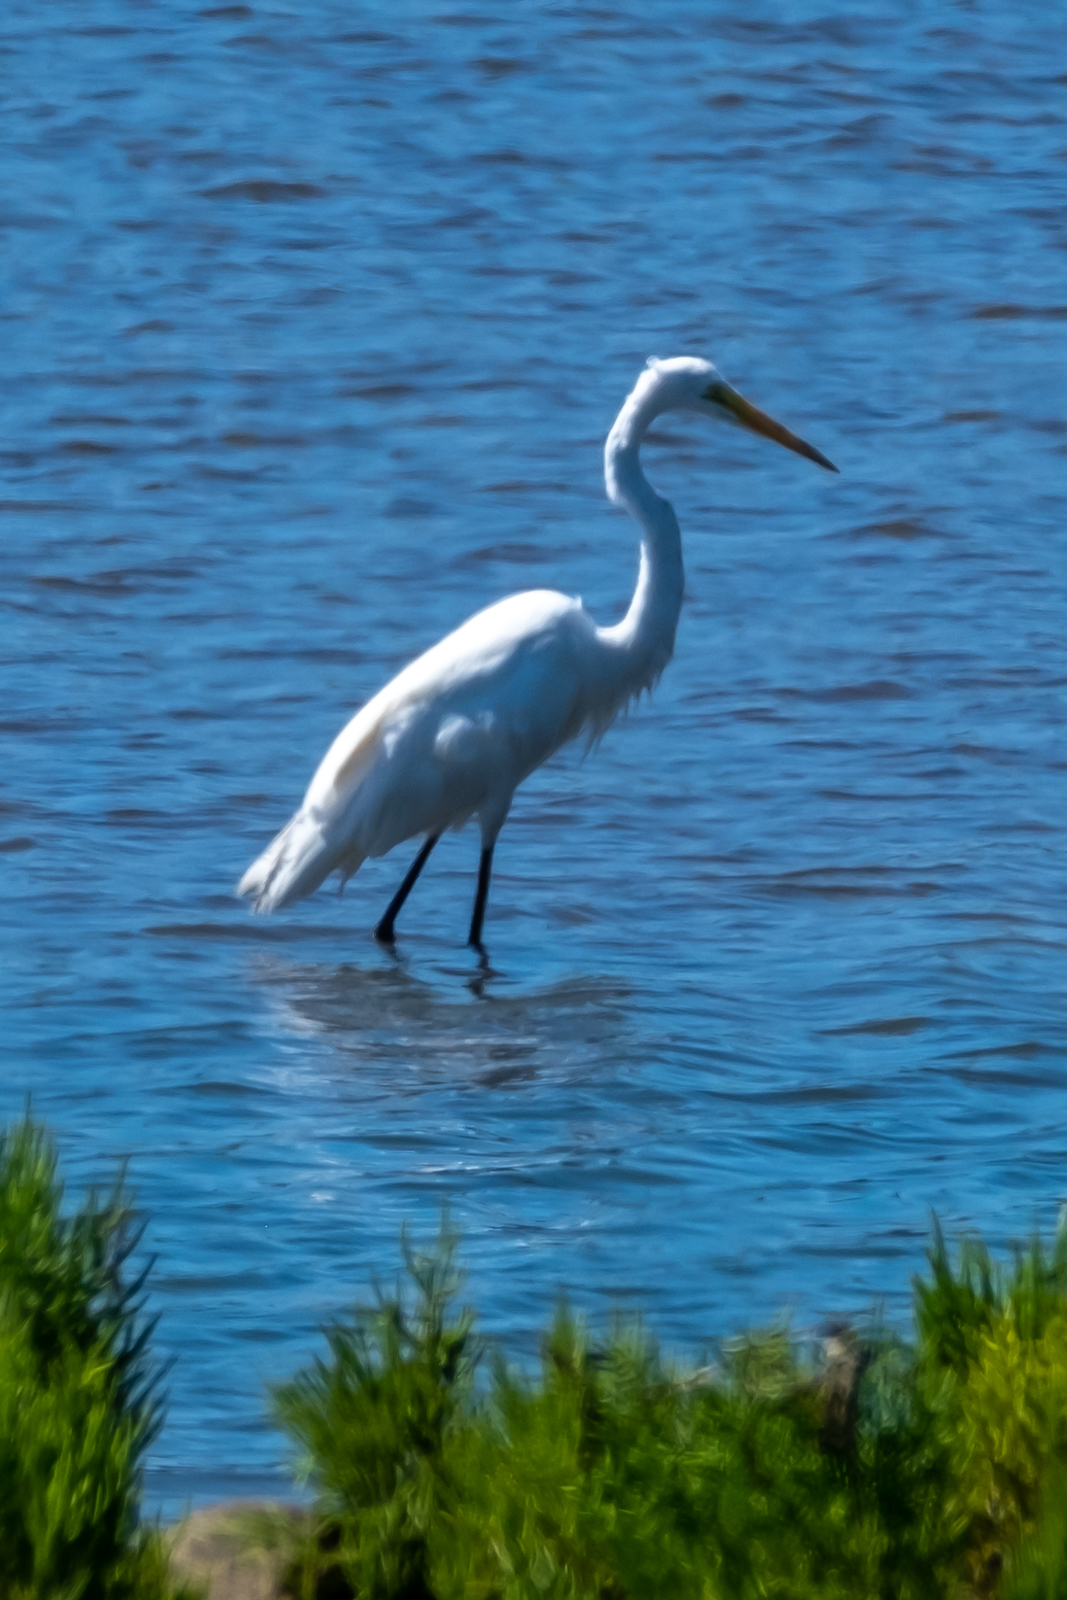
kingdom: Animalia
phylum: Chordata
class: Aves
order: Pelecaniformes
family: Ardeidae
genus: Ardea
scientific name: Ardea alba
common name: Great egret
